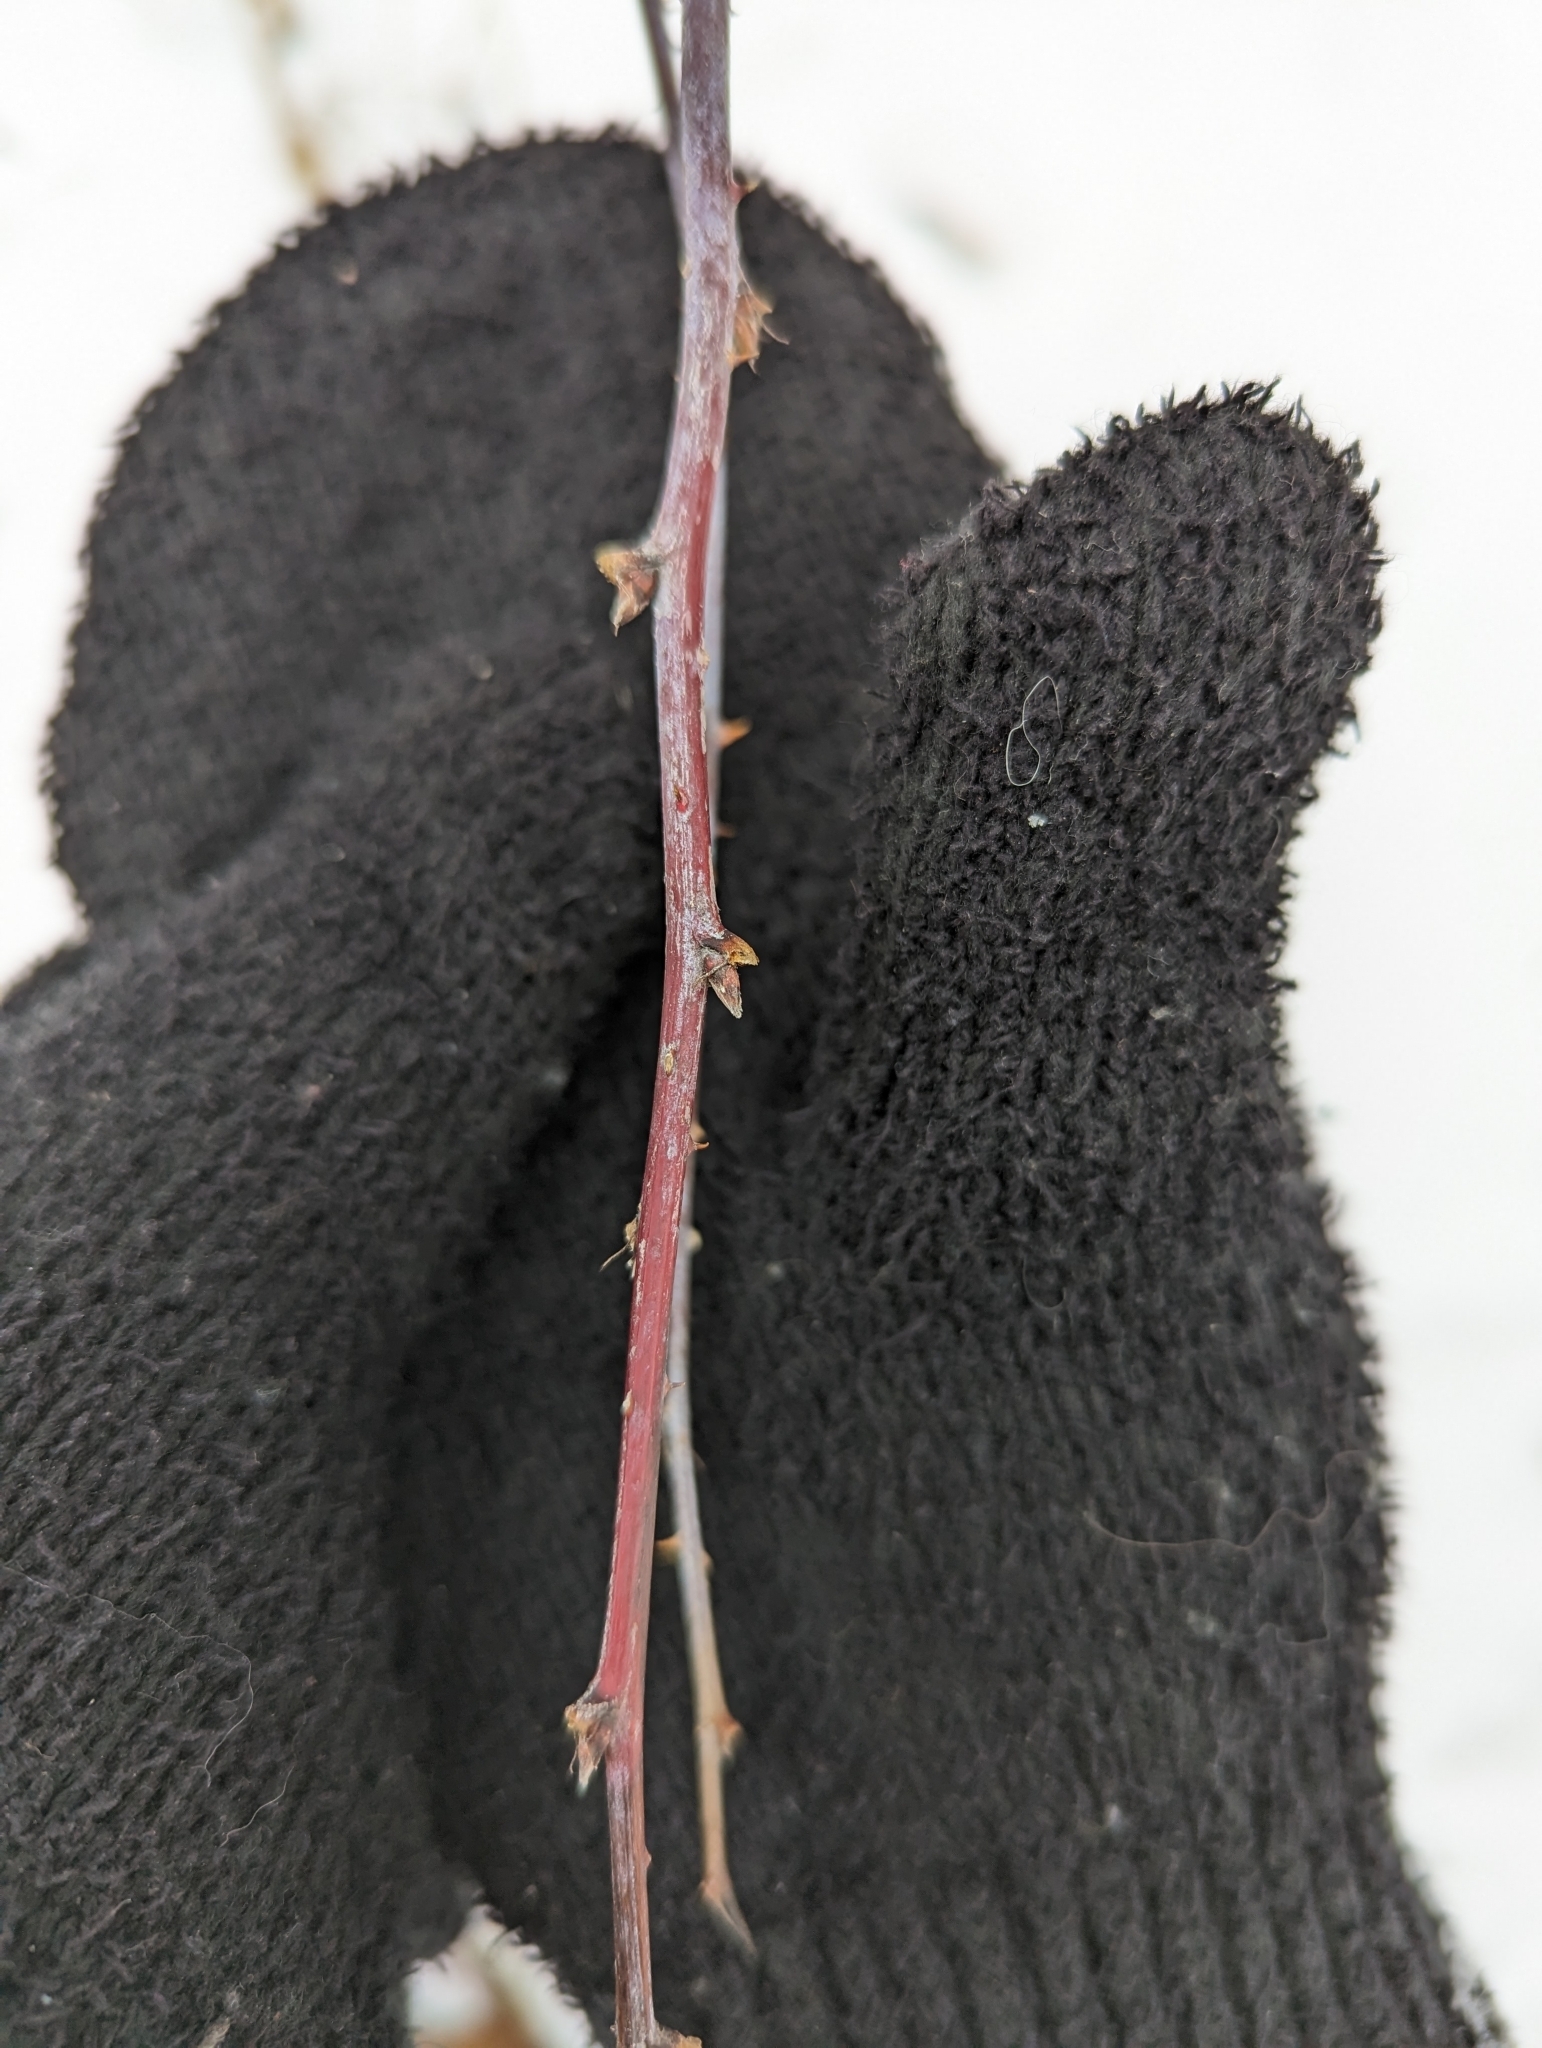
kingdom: Plantae
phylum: Tracheophyta
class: Magnoliopsida
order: Rosales
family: Rosaceae
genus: Rubus
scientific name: Rubus occidentalis
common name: Black raspberry
